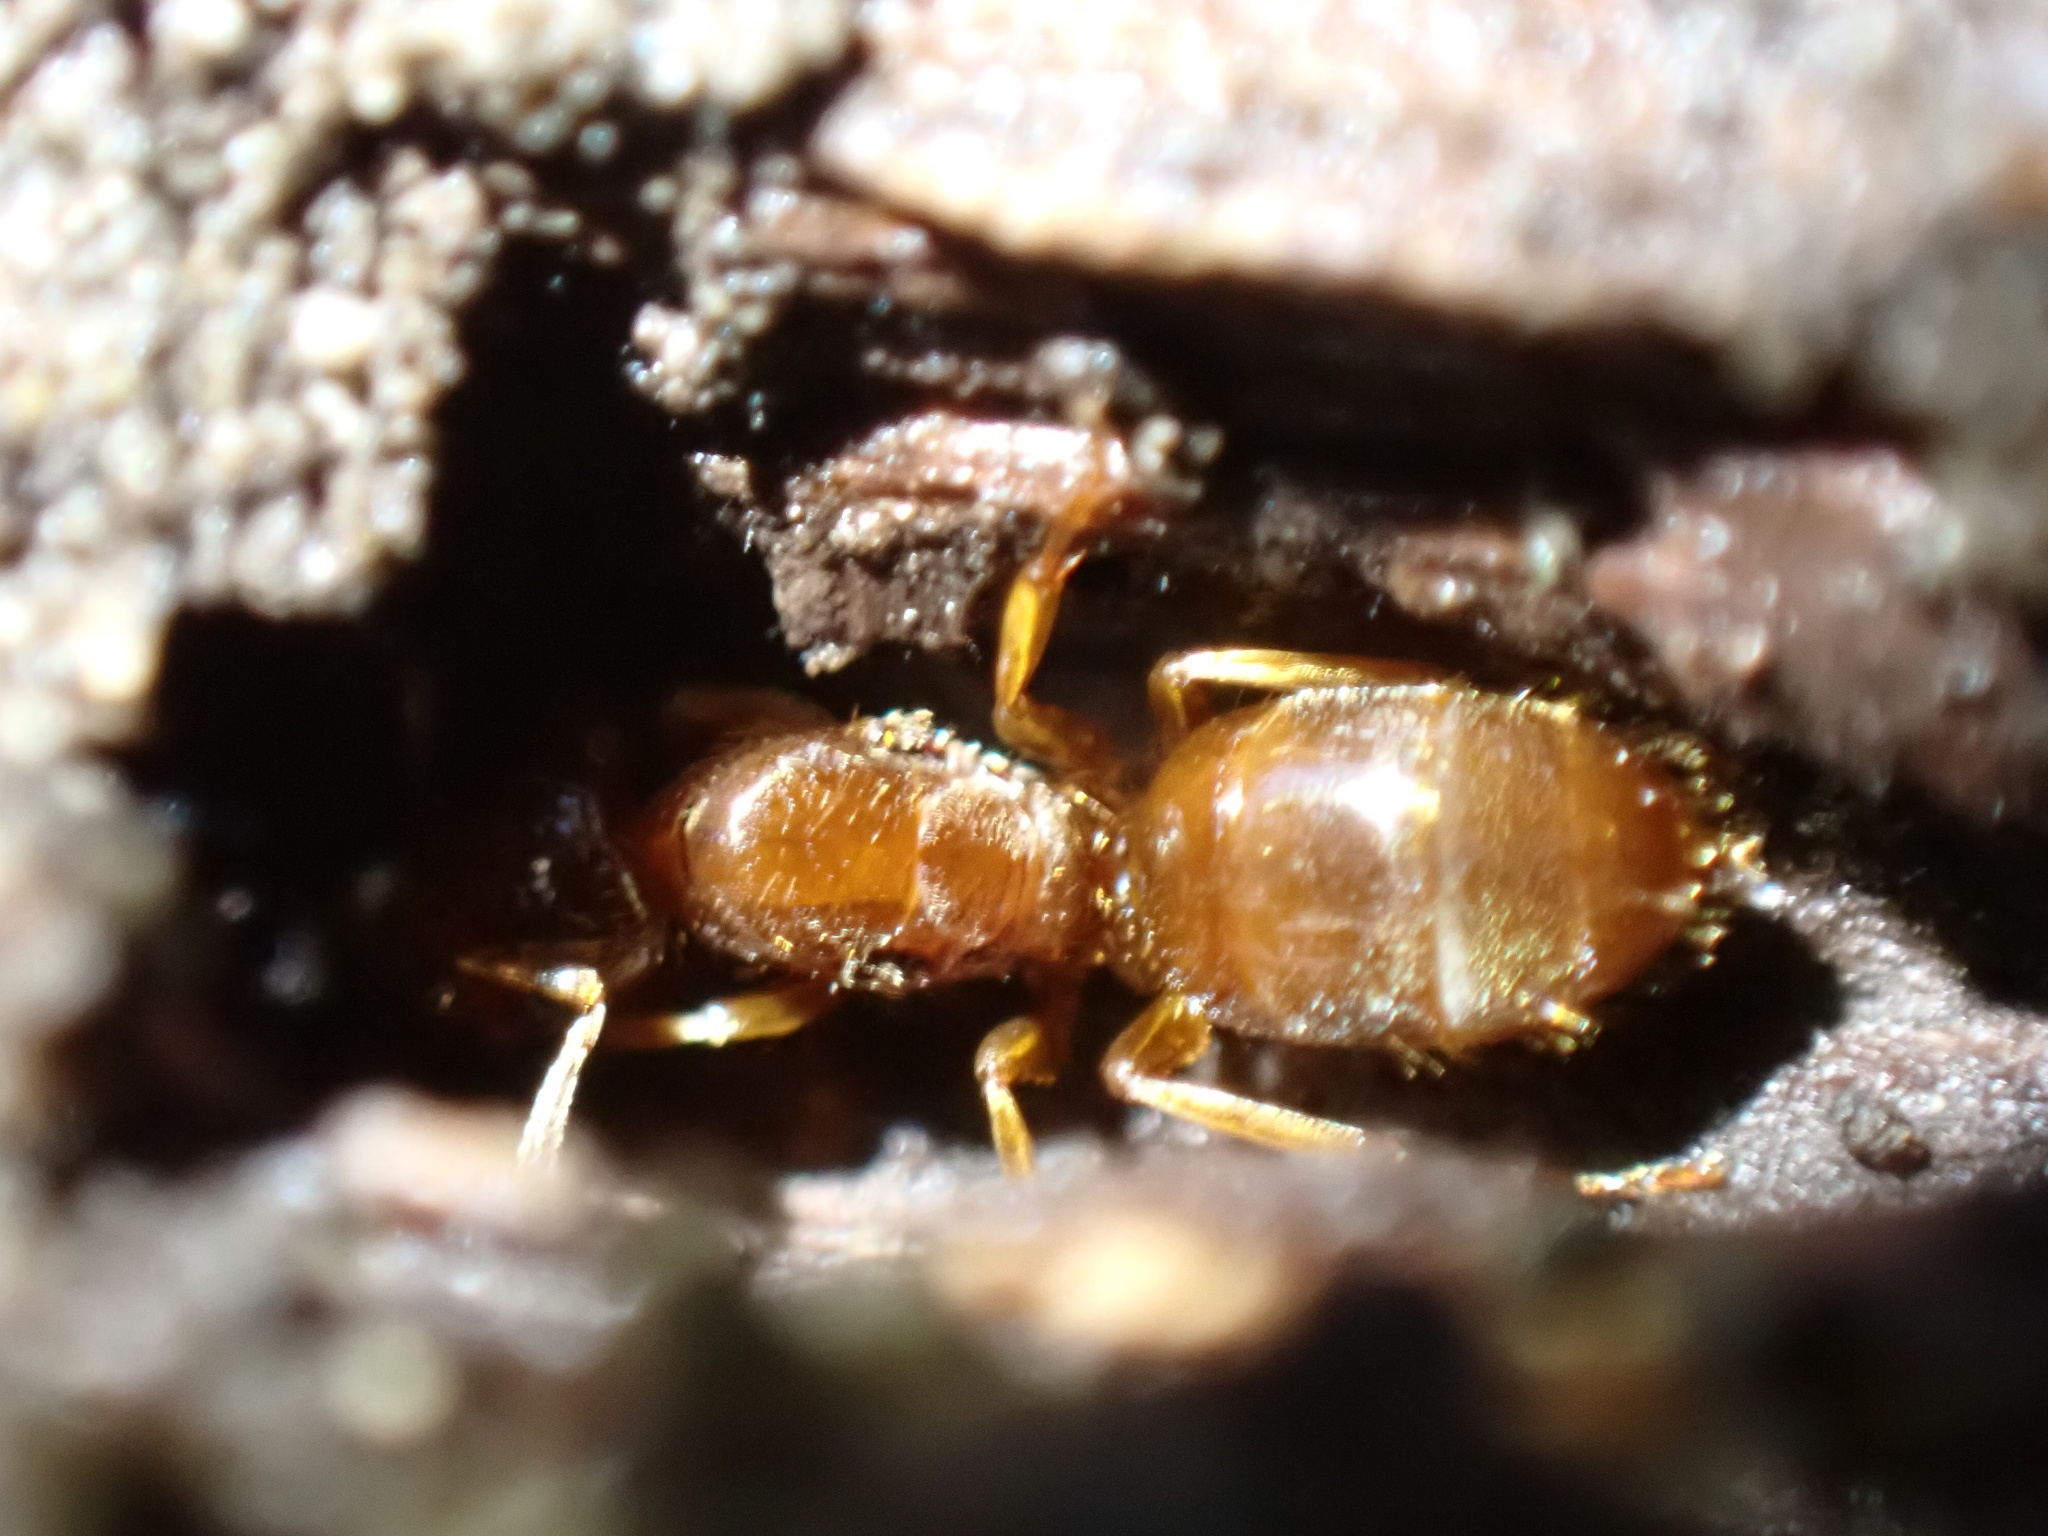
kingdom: Animalia
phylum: Arthropoda
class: Insecta
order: Hymenoptera
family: Formicidae
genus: Lasius
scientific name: Lasius claviger
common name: Common citronella ant
